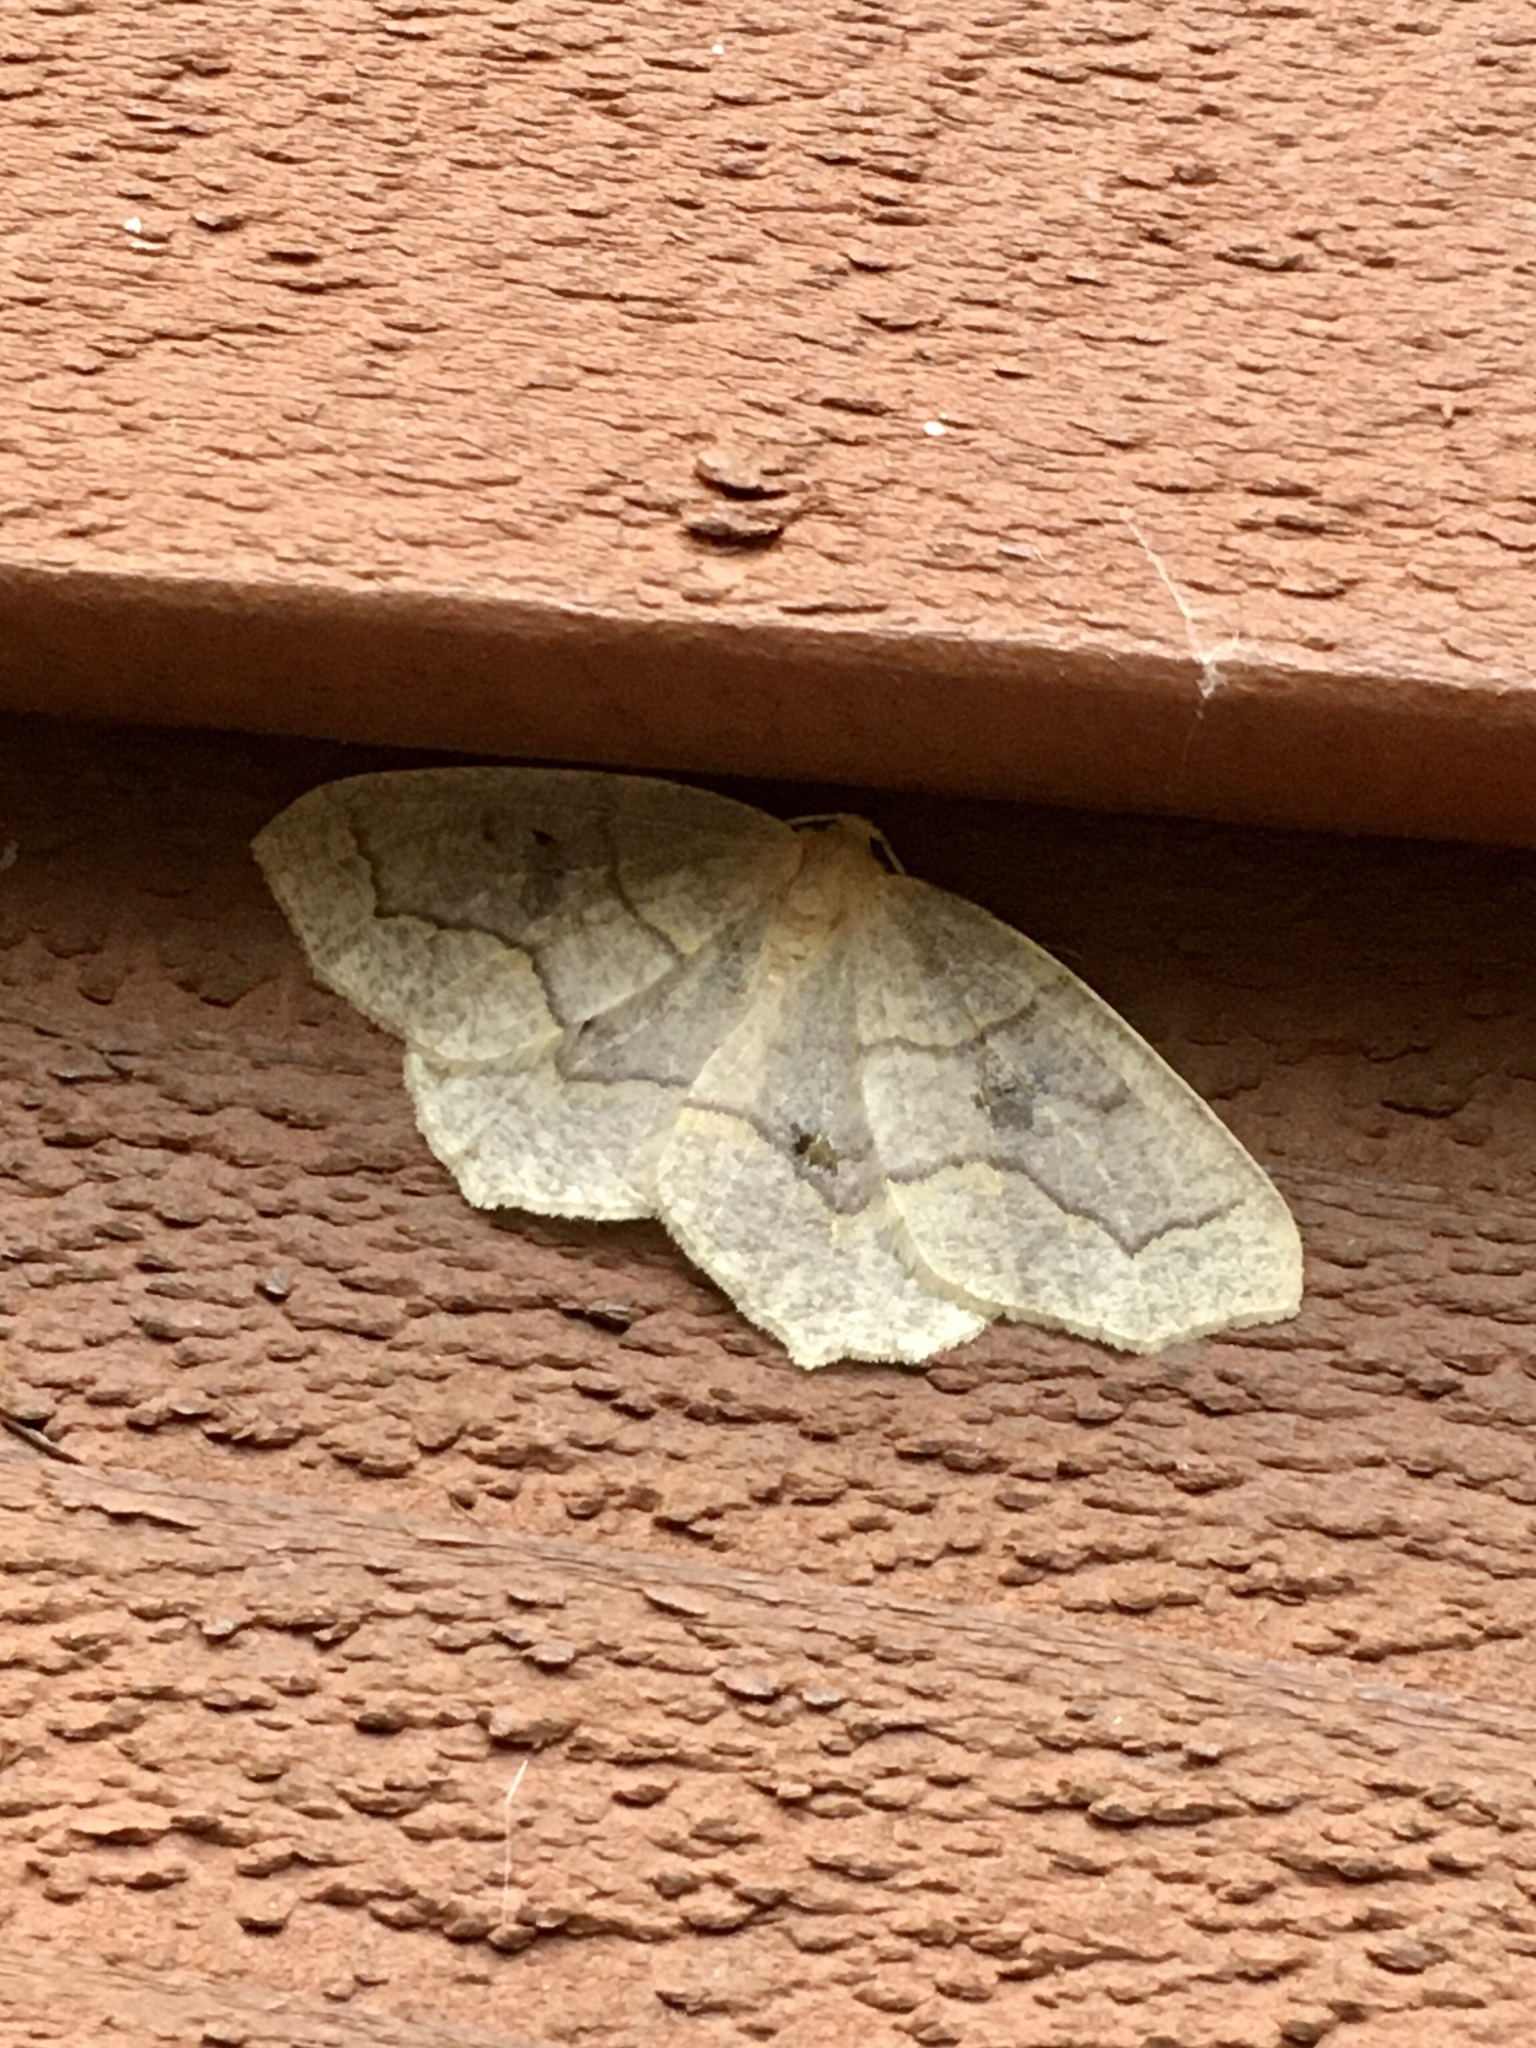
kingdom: Animalia
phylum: Arthropoda
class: Insecta
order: Lepidoptera
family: Geometridae
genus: Lambdina
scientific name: Lambdina fiscellaria
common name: Hemlock looper
